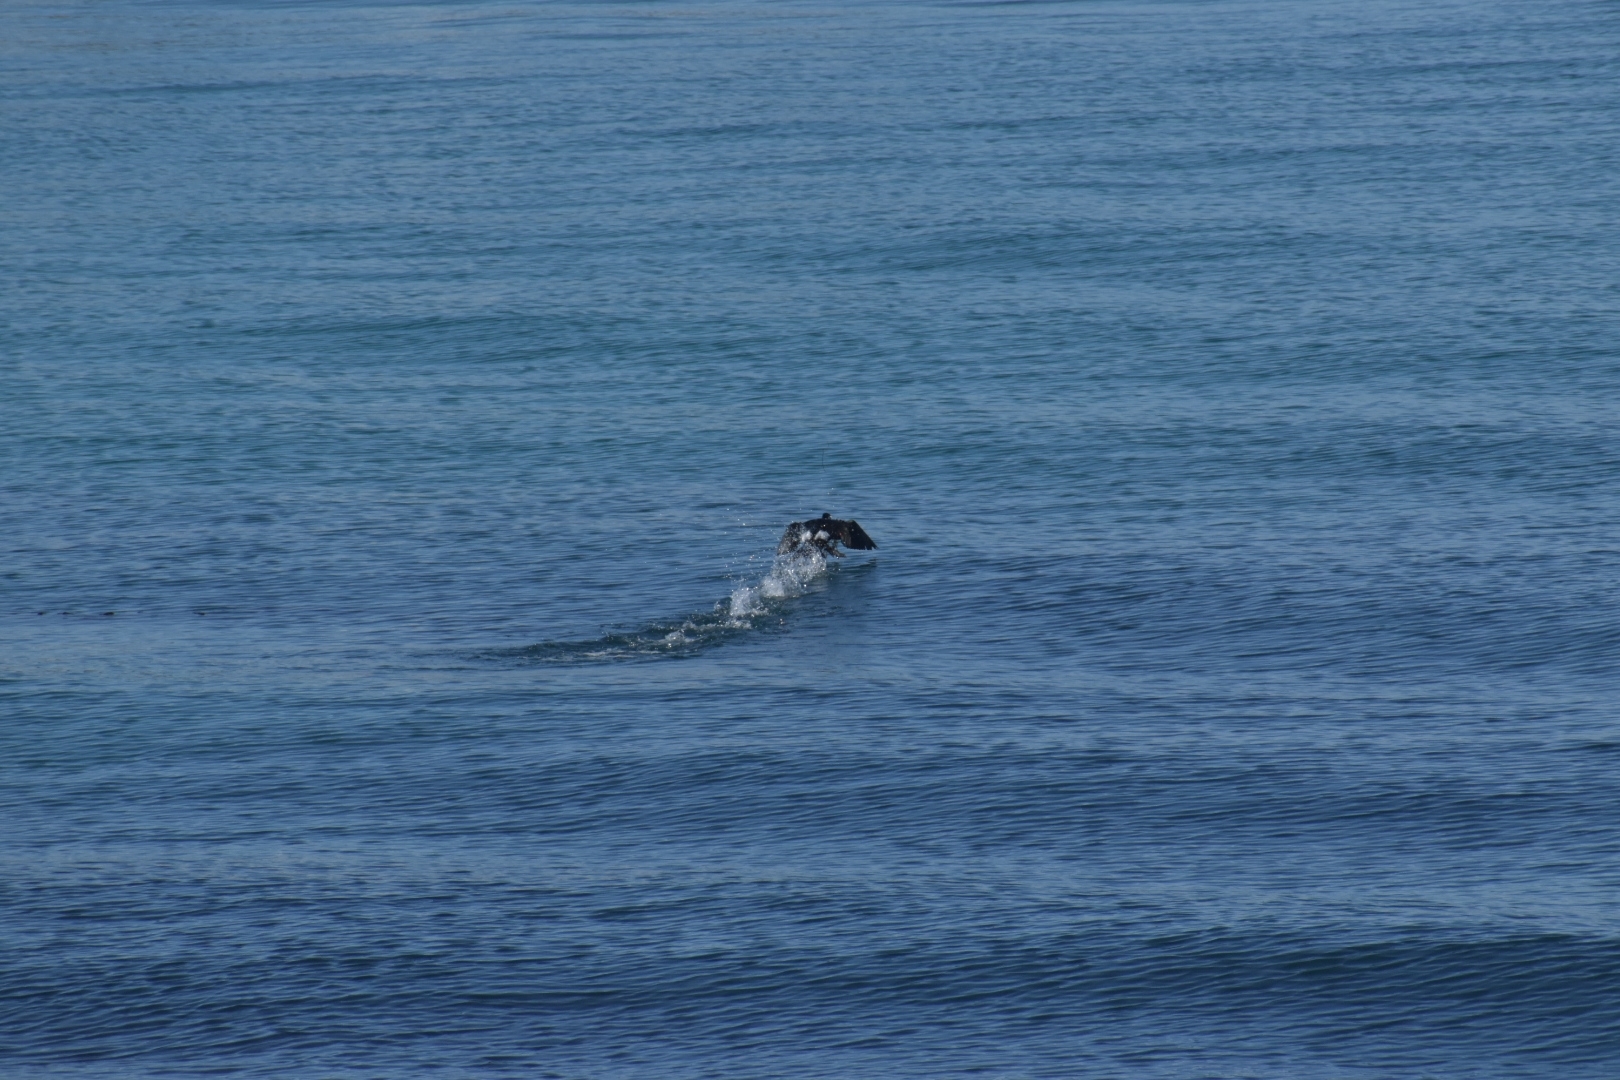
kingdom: Animalia
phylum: Chordata
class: Aves
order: Suliformes
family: Phalacrocoracidae
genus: Phalacrocorax
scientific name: Phalacrocorax pelagicus
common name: Pelagic cormorant
